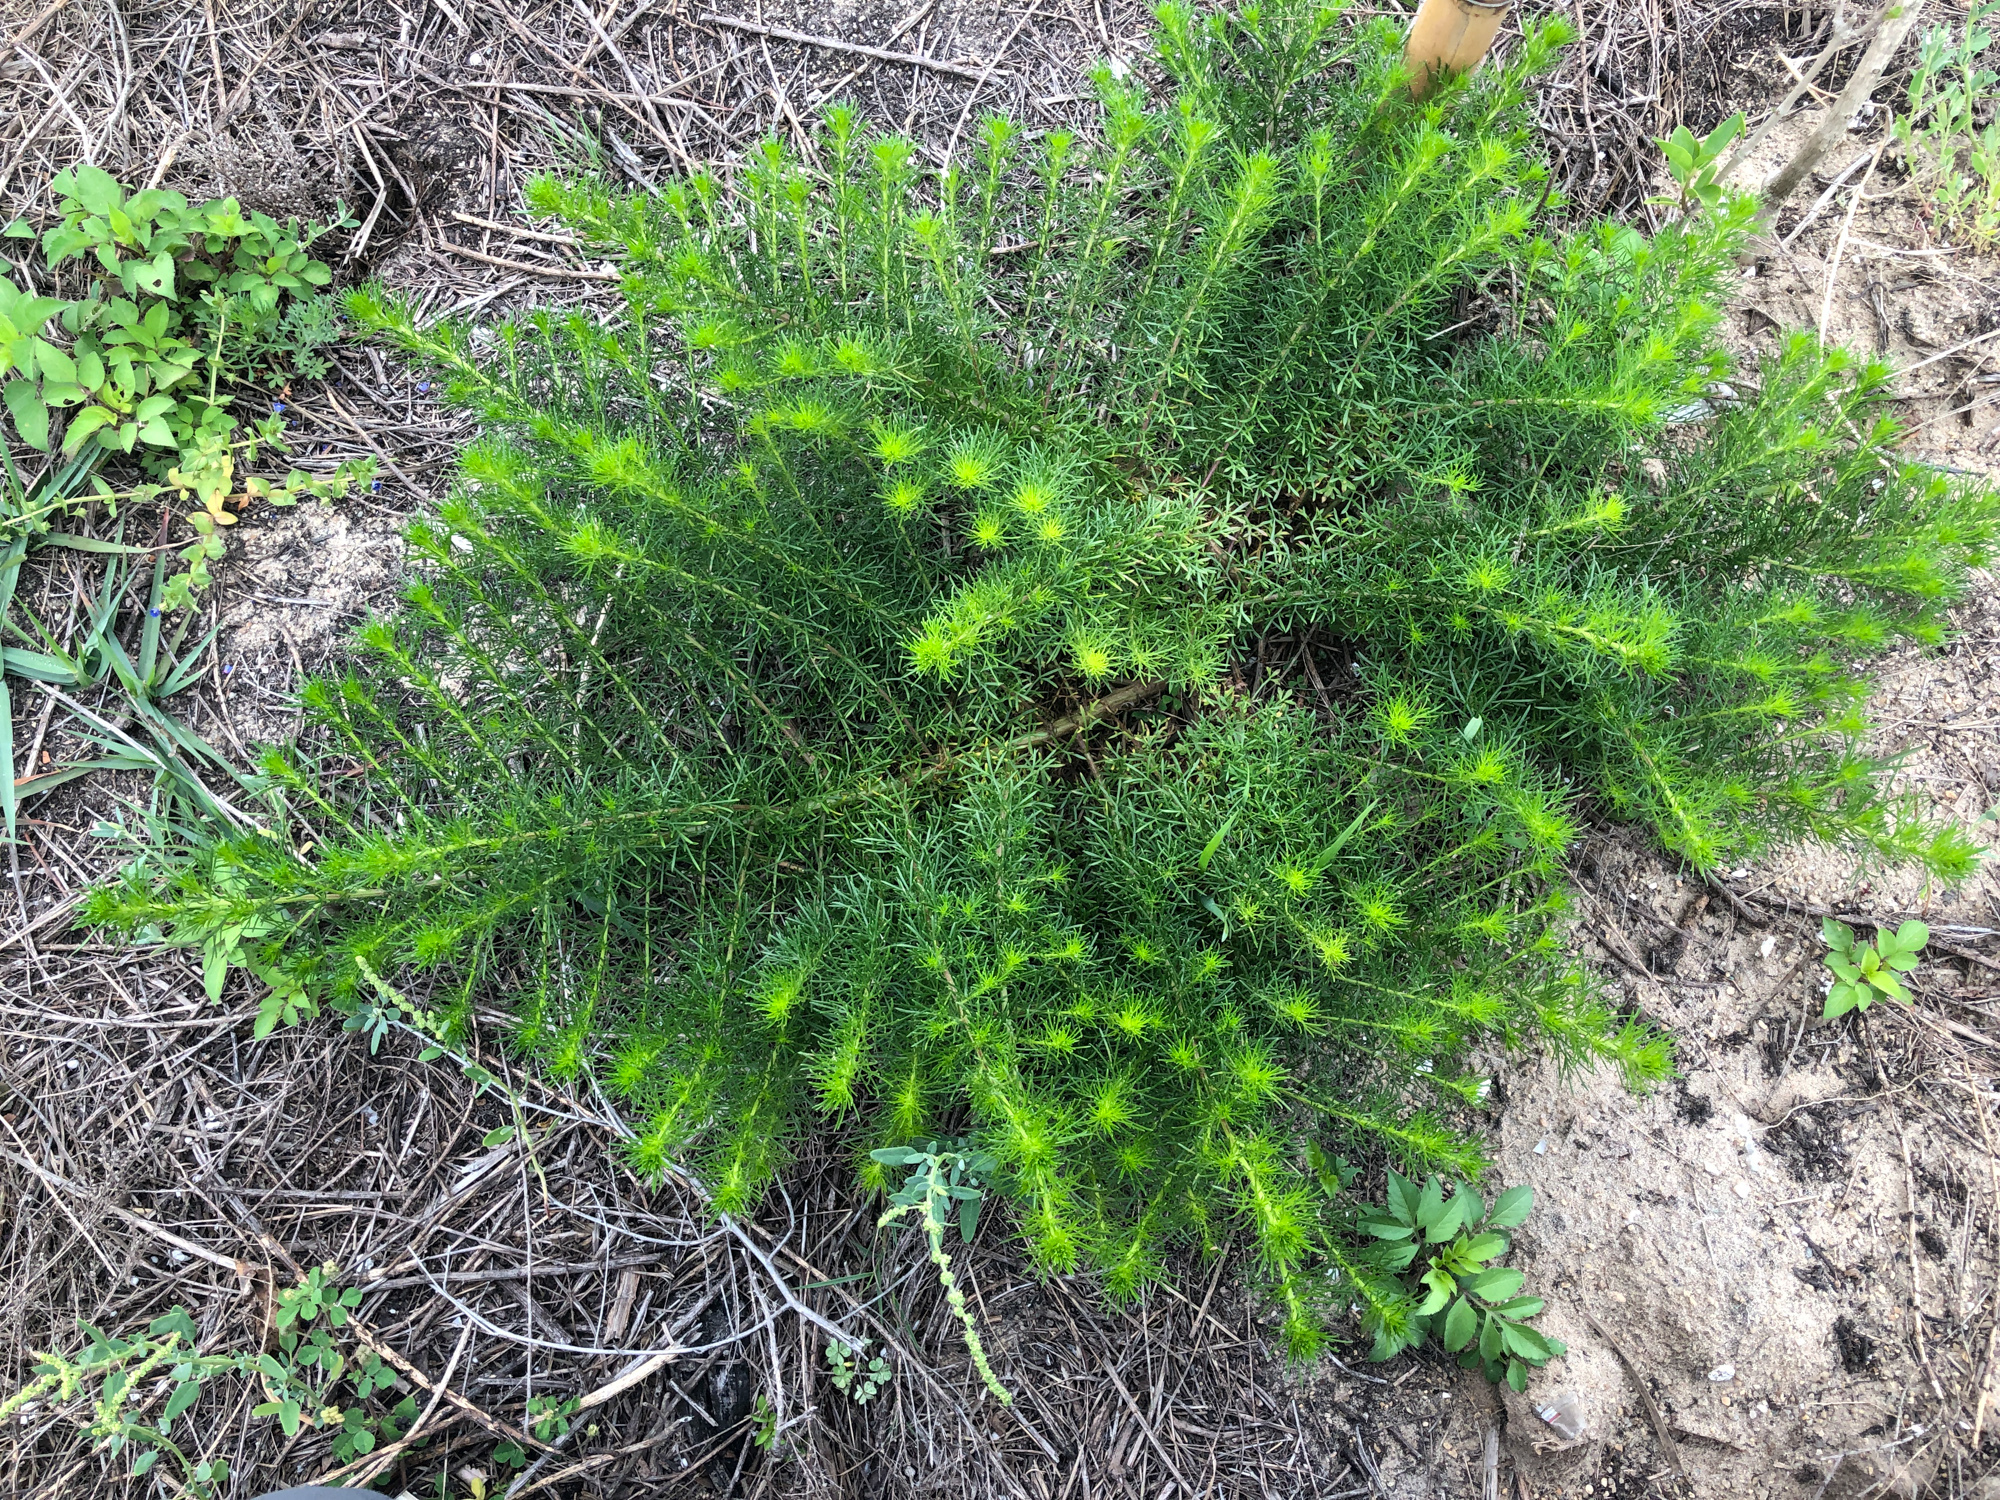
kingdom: Plantae
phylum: Tracheophyta
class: Magnoliopsida
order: Asterales
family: Asteraceae
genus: Artemisia
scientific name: Artemisia capillaris
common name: Yin-chen wormwood
